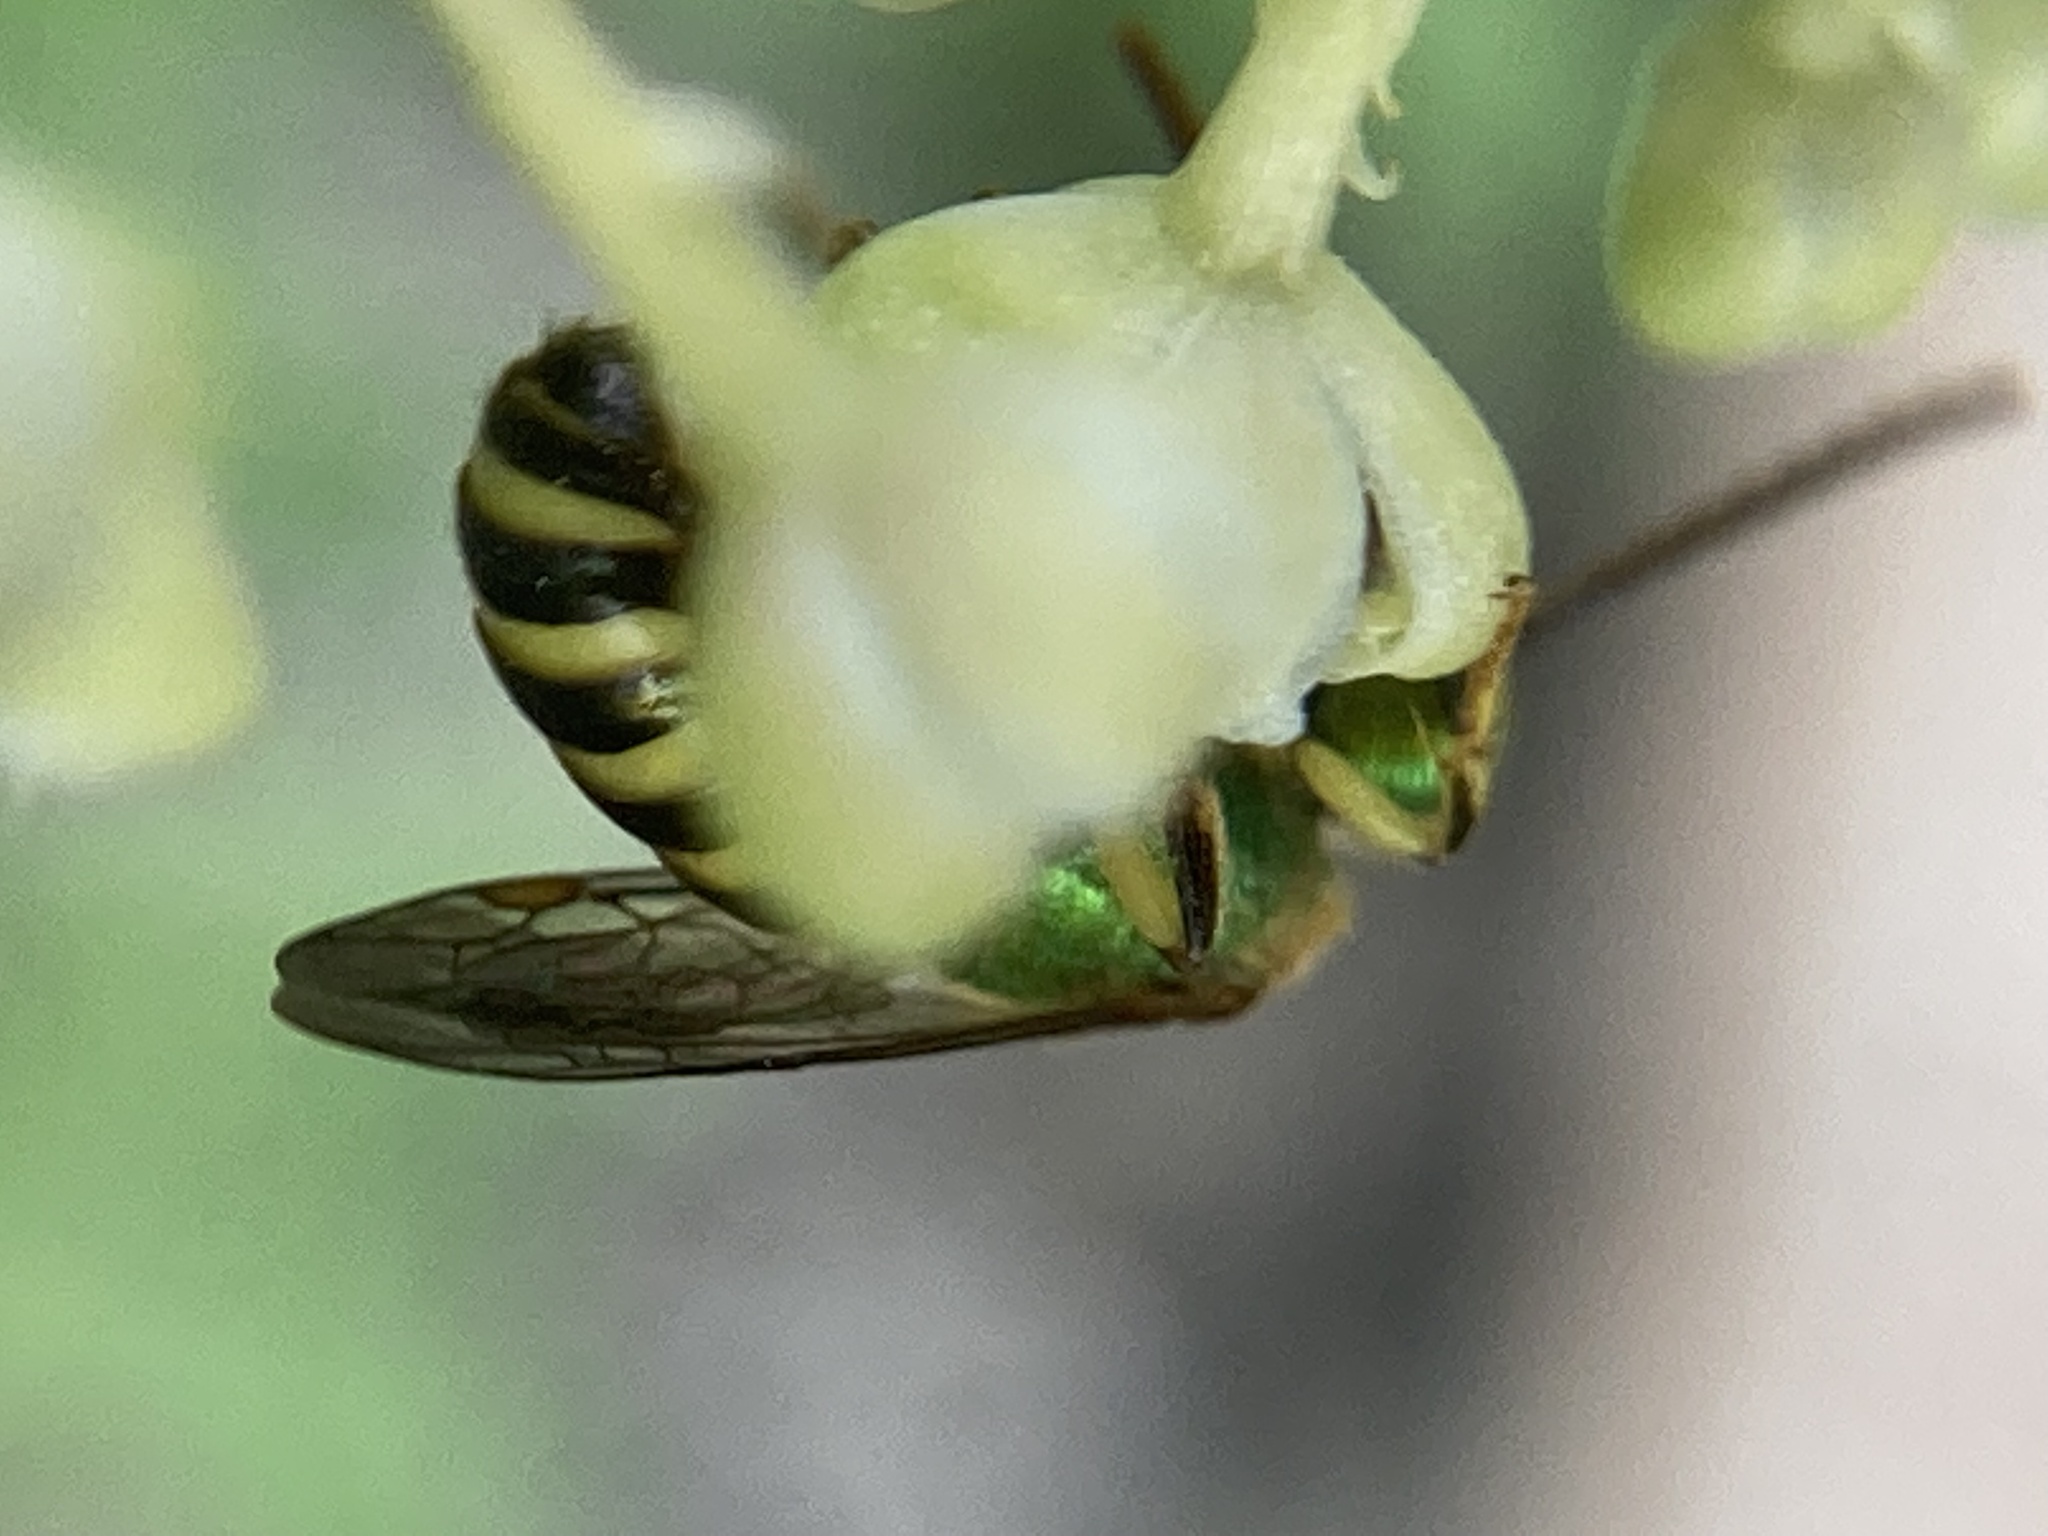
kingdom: Animalia
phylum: Arthropoda
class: Insecta
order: Hymenoptera
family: Halictidae
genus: Agapostemon
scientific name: Agapostemon
